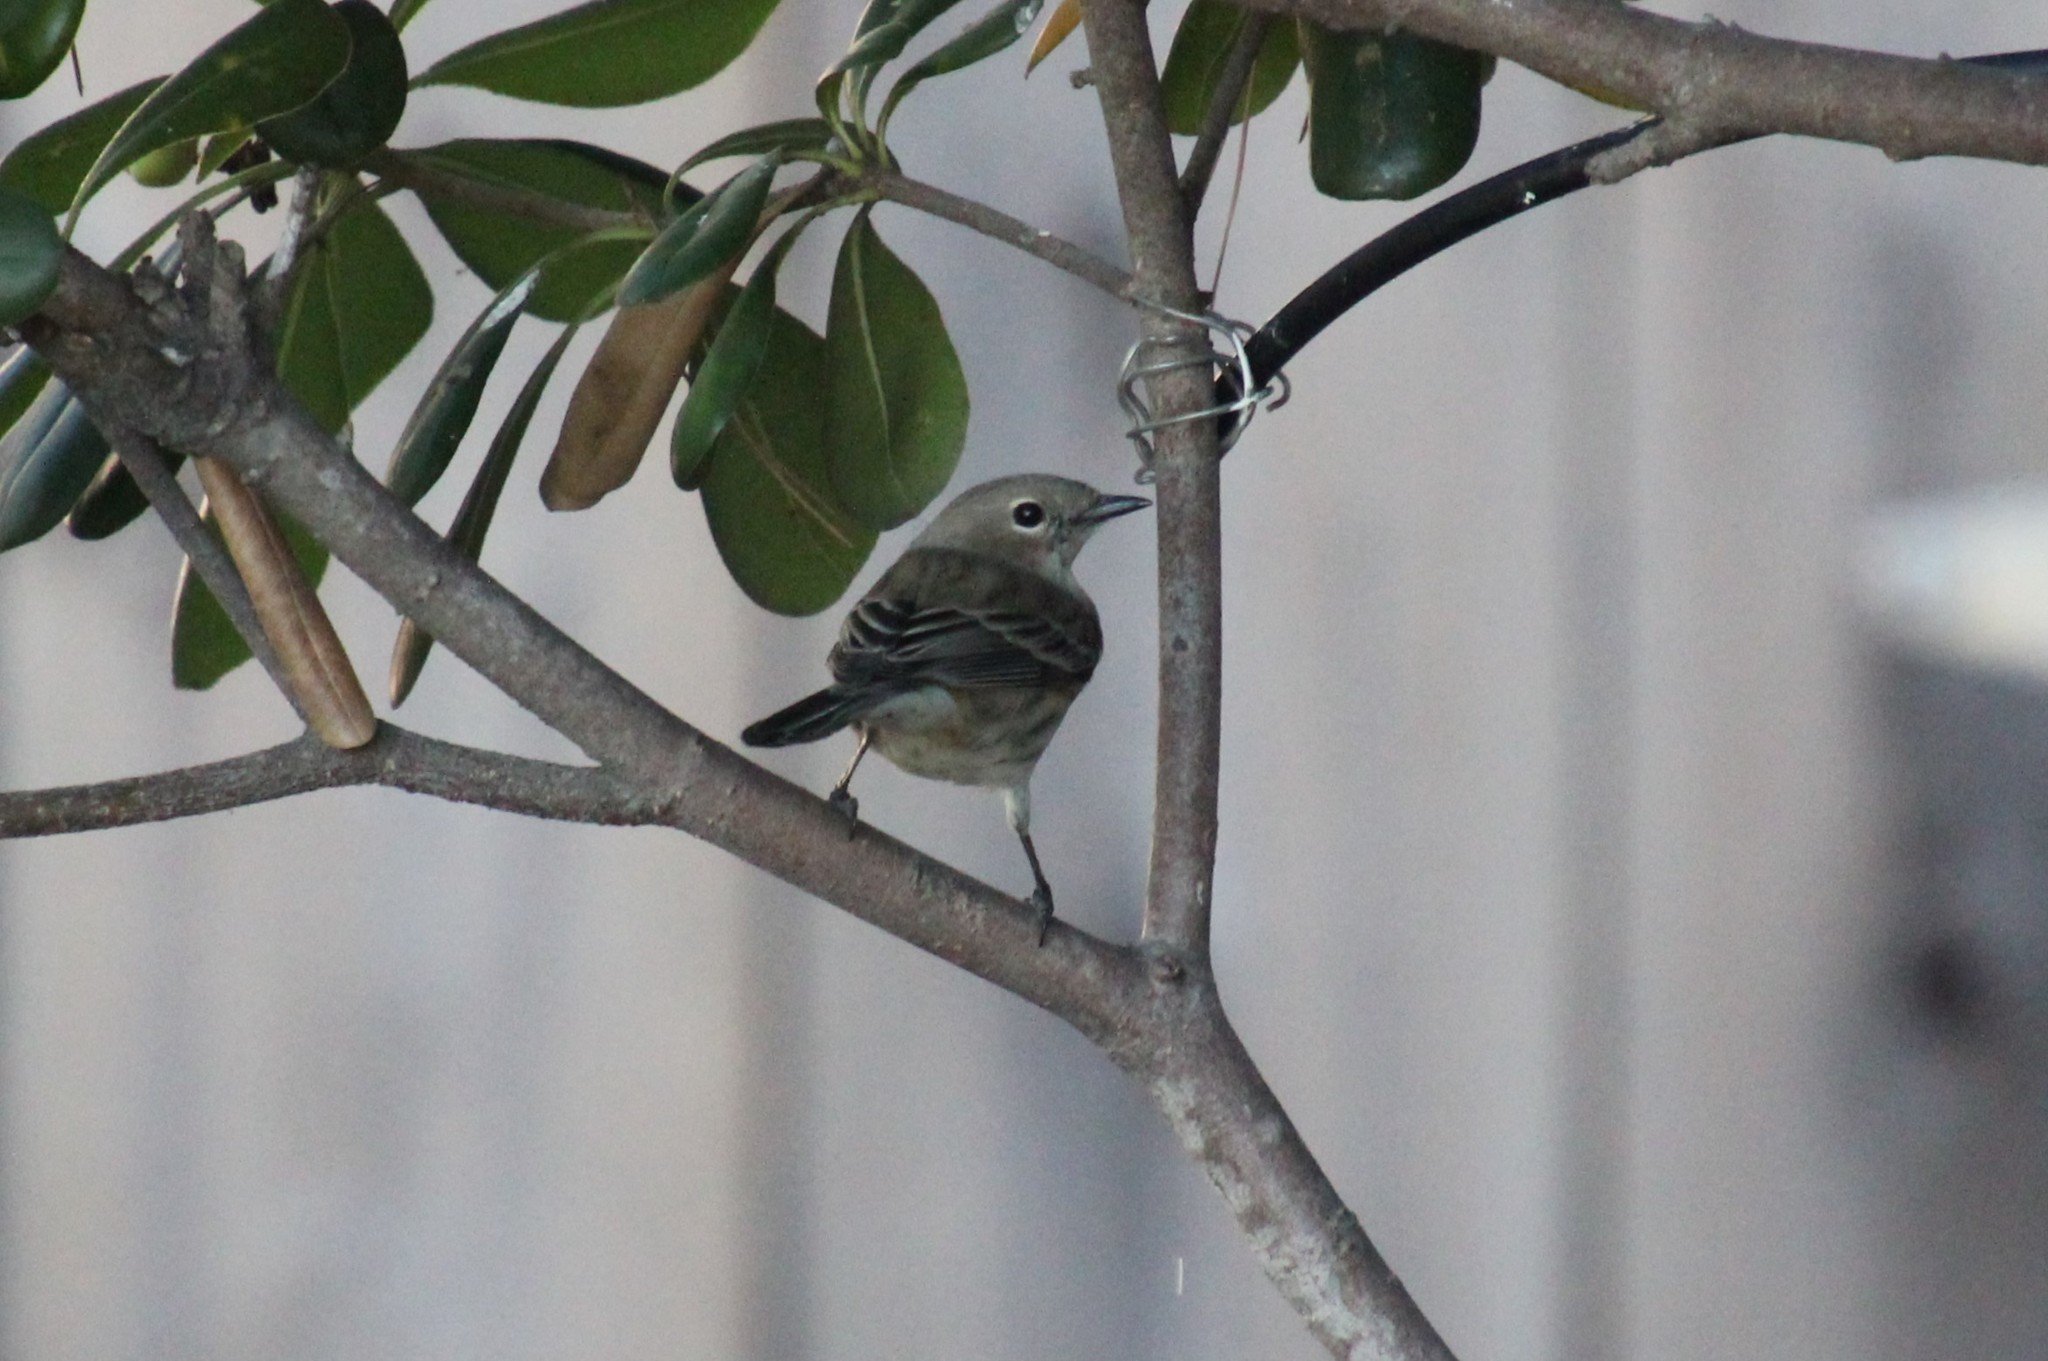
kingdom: Animalia
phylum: Chordata
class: Aves
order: Passeriformes
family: Parulidae
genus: Setophaga
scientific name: Setophaga auduboni
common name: Audubon's warbler
